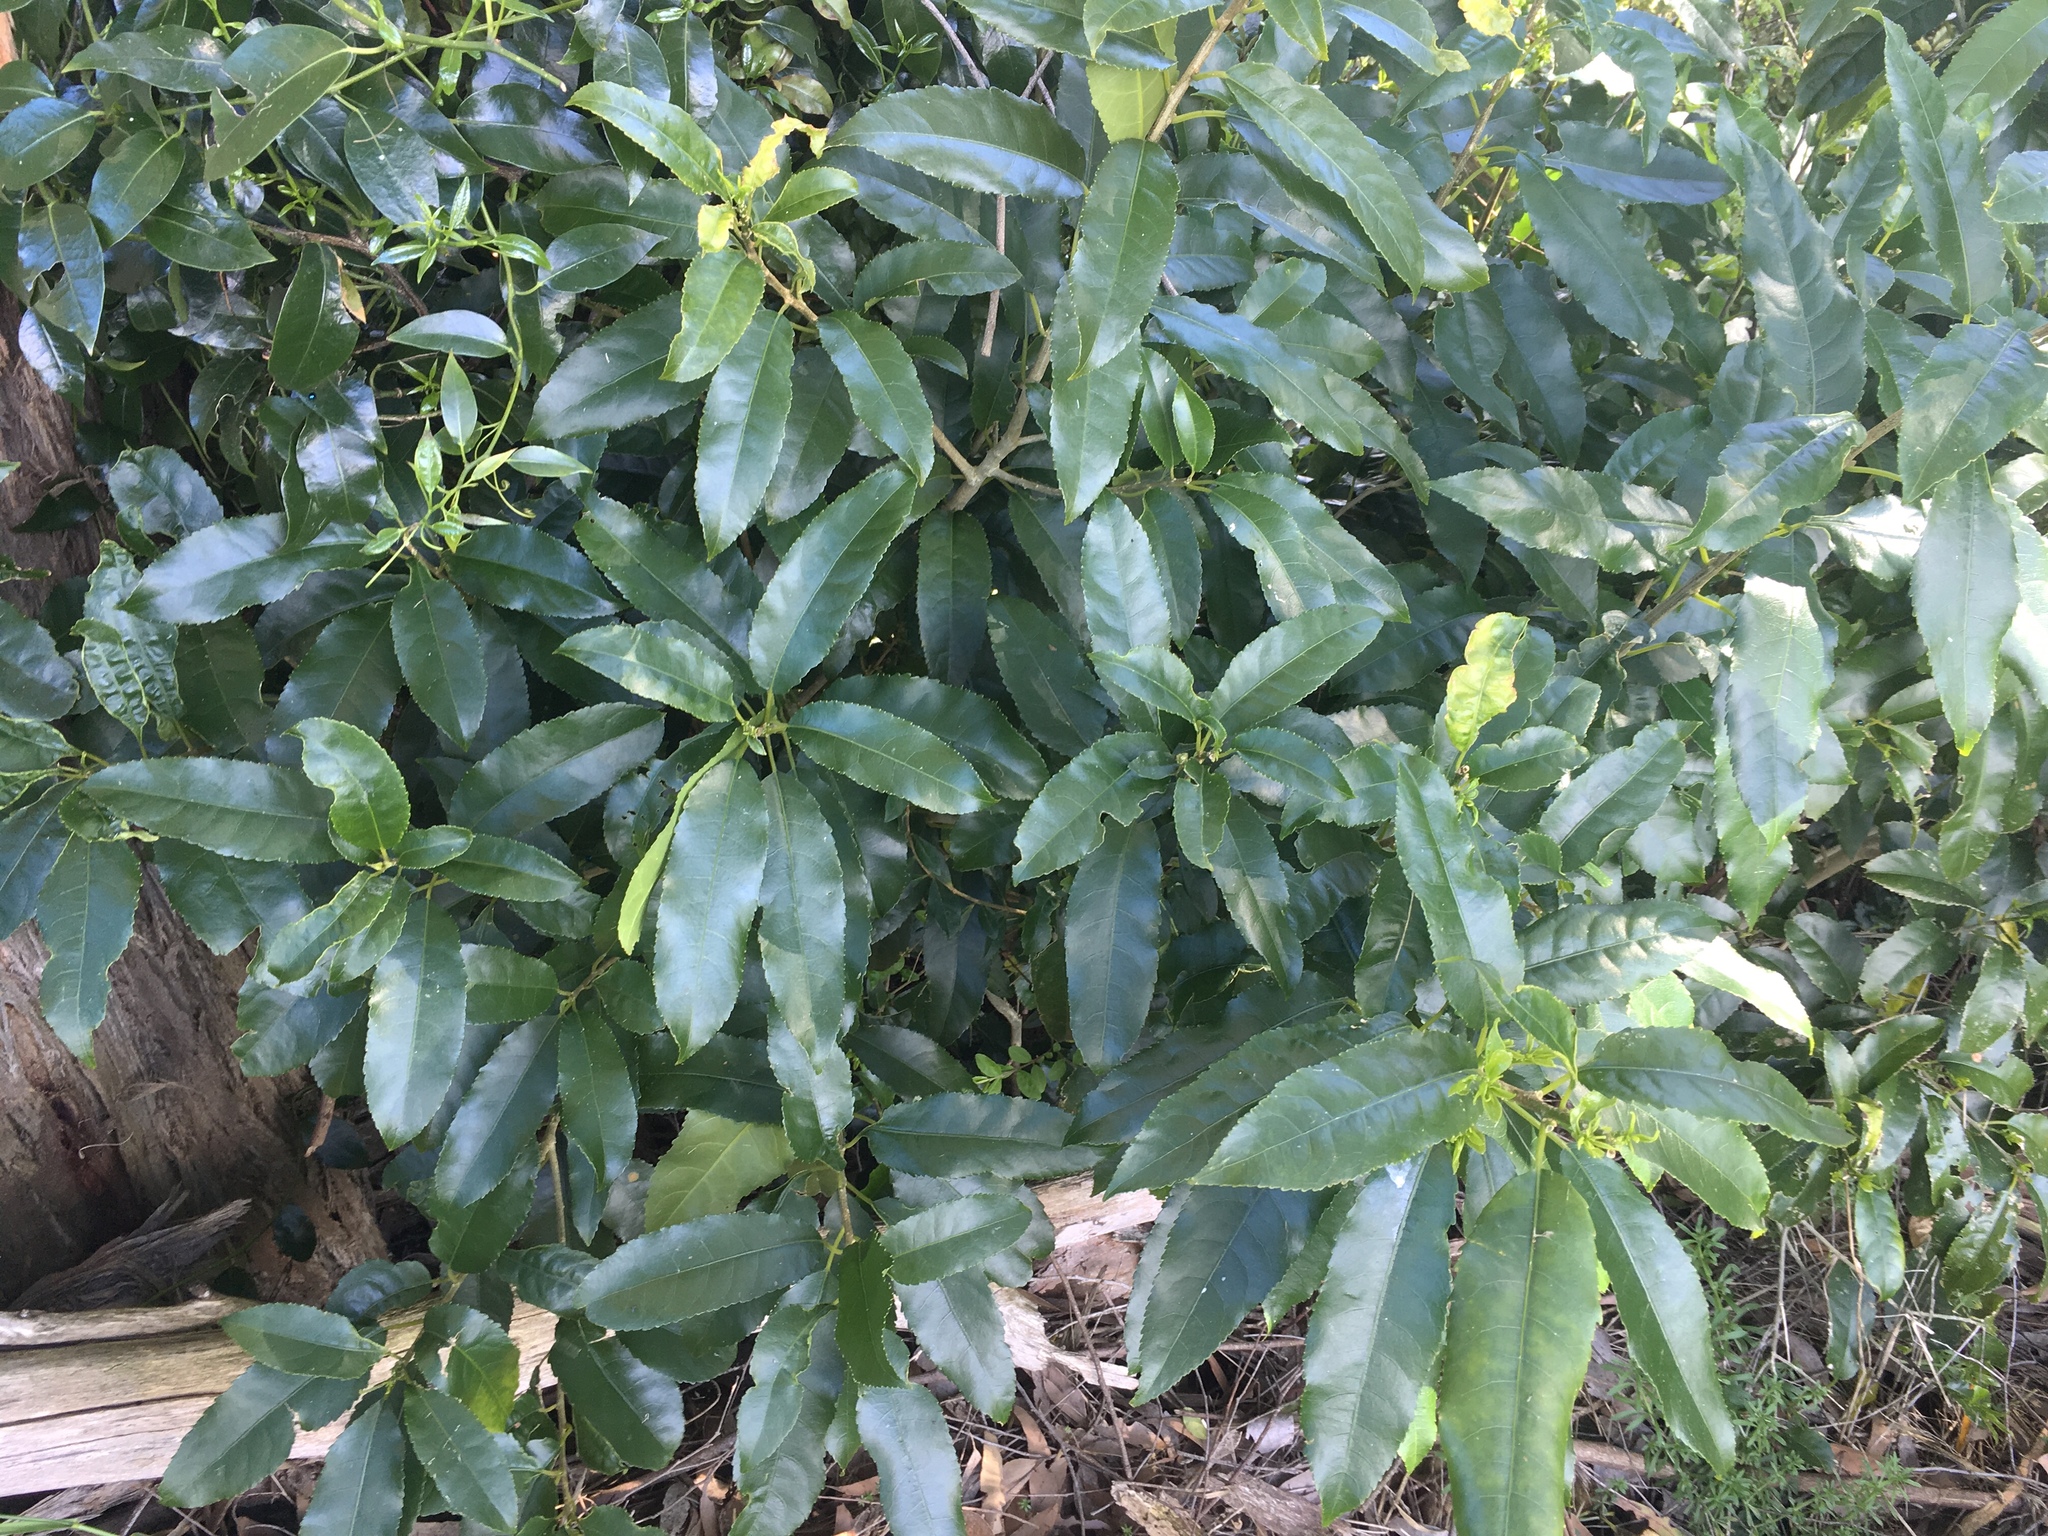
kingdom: Plantae
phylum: Tracheophyta
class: Magnoliopsida
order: Malpighiales
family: Violaceae
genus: Melicytus
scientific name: Melicytus ramiflorus
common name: Mahoe
